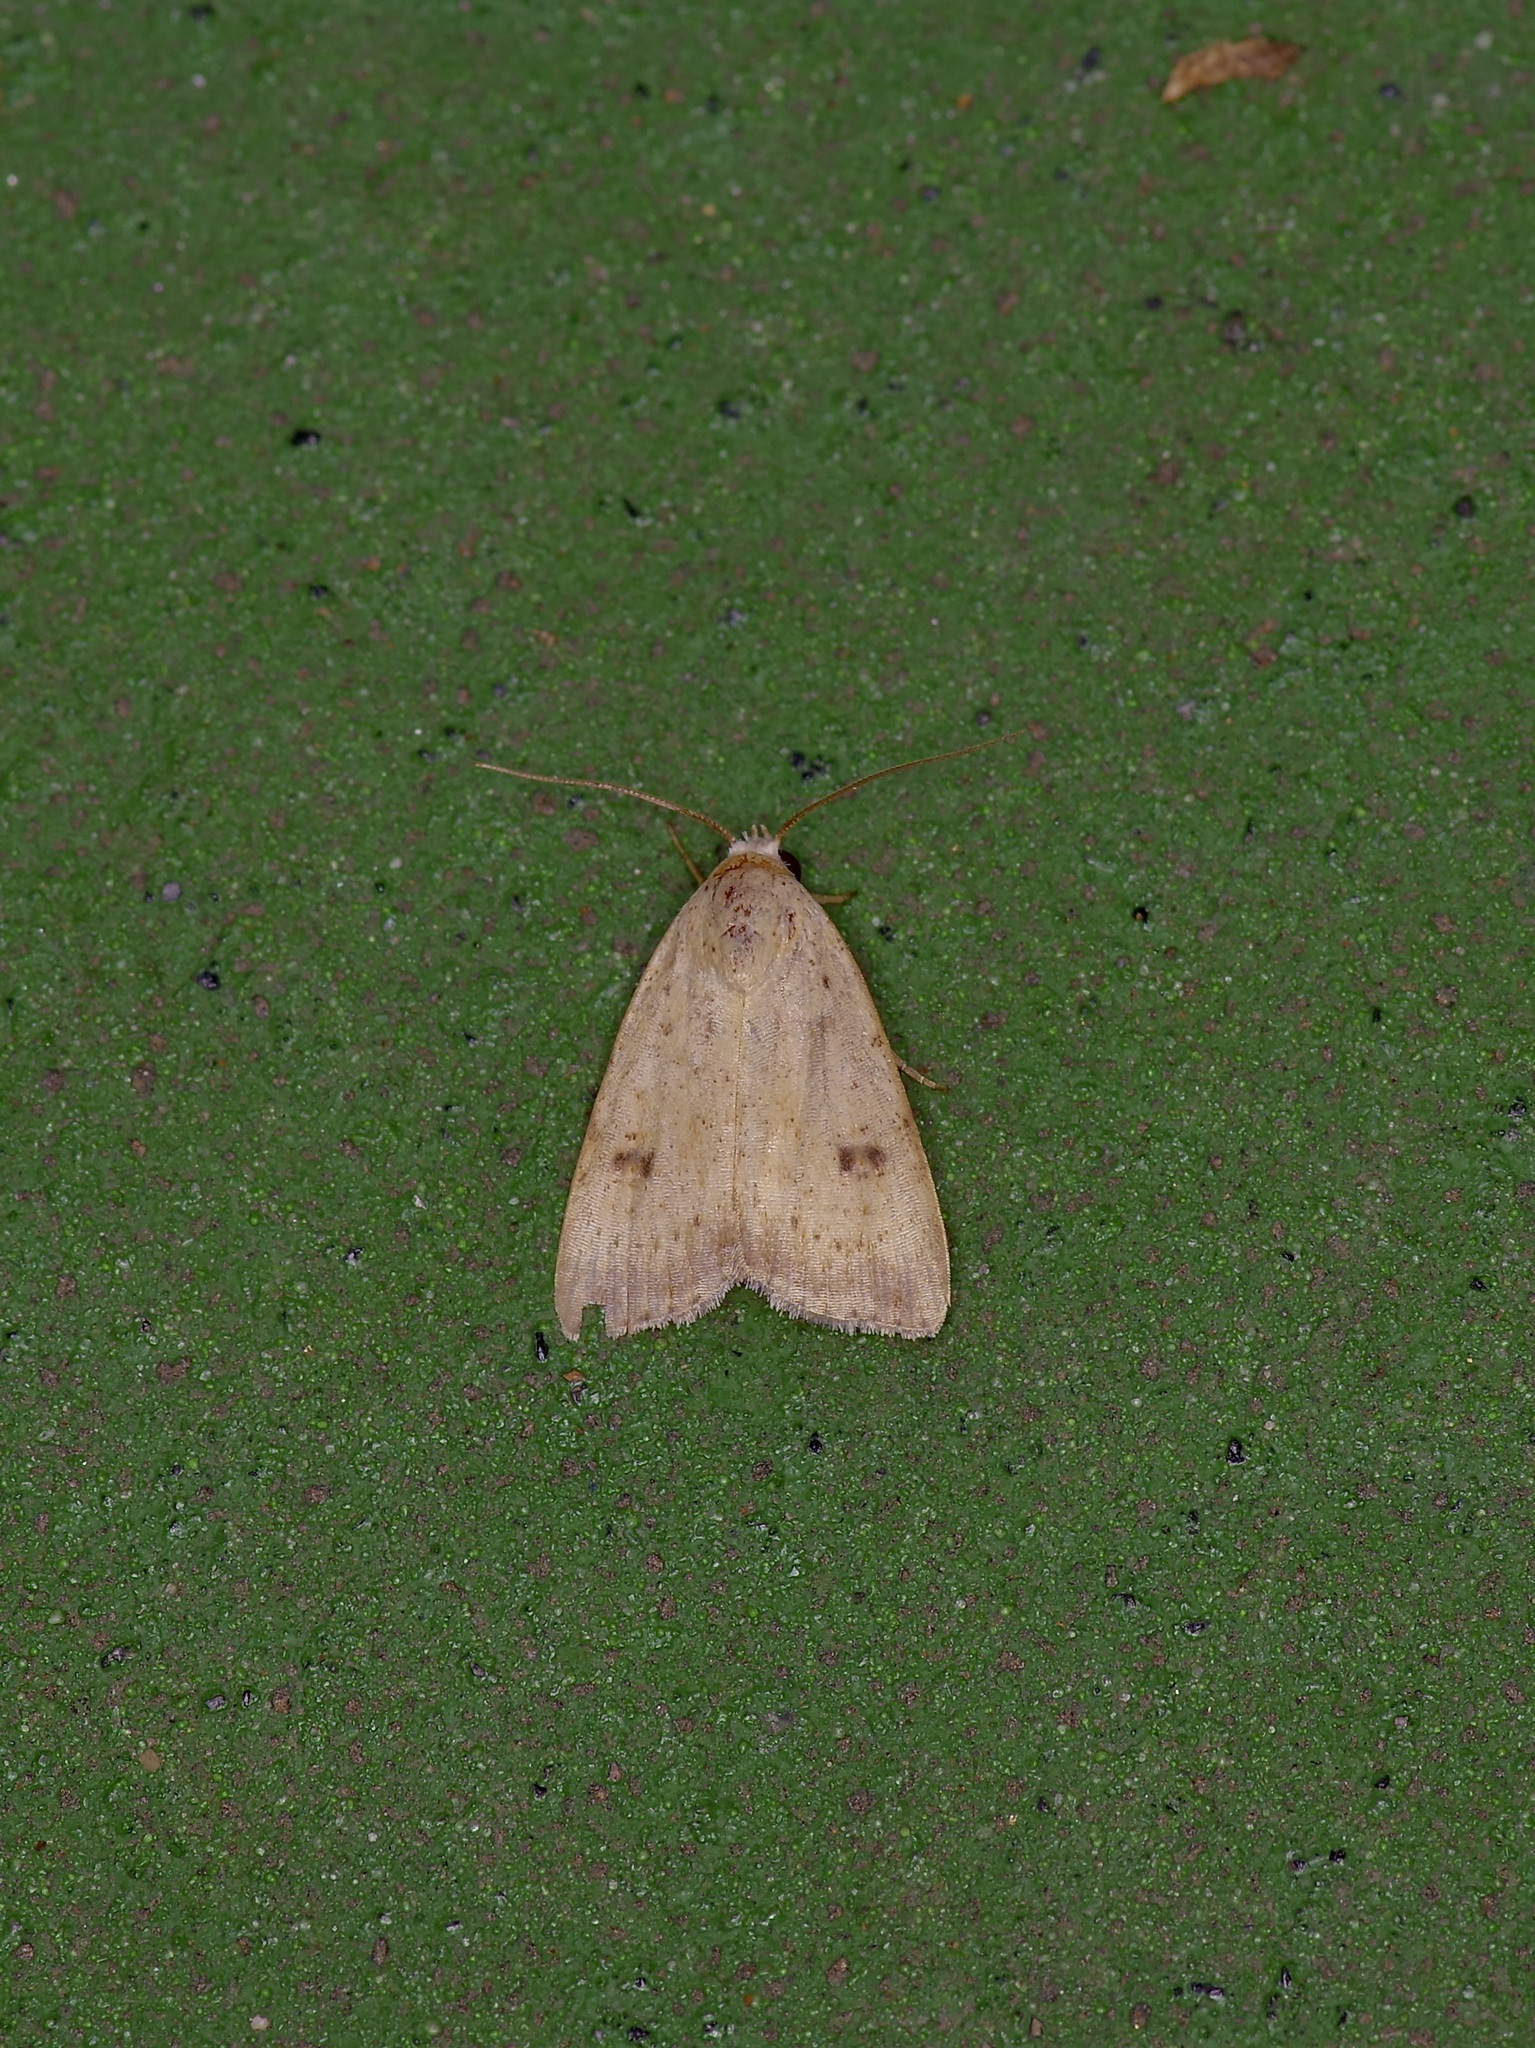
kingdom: Animalia
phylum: Arthropoda
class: Insecta
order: Lepidoptera
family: Noctuidae
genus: Micrathetis
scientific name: Micrathetis triplex
